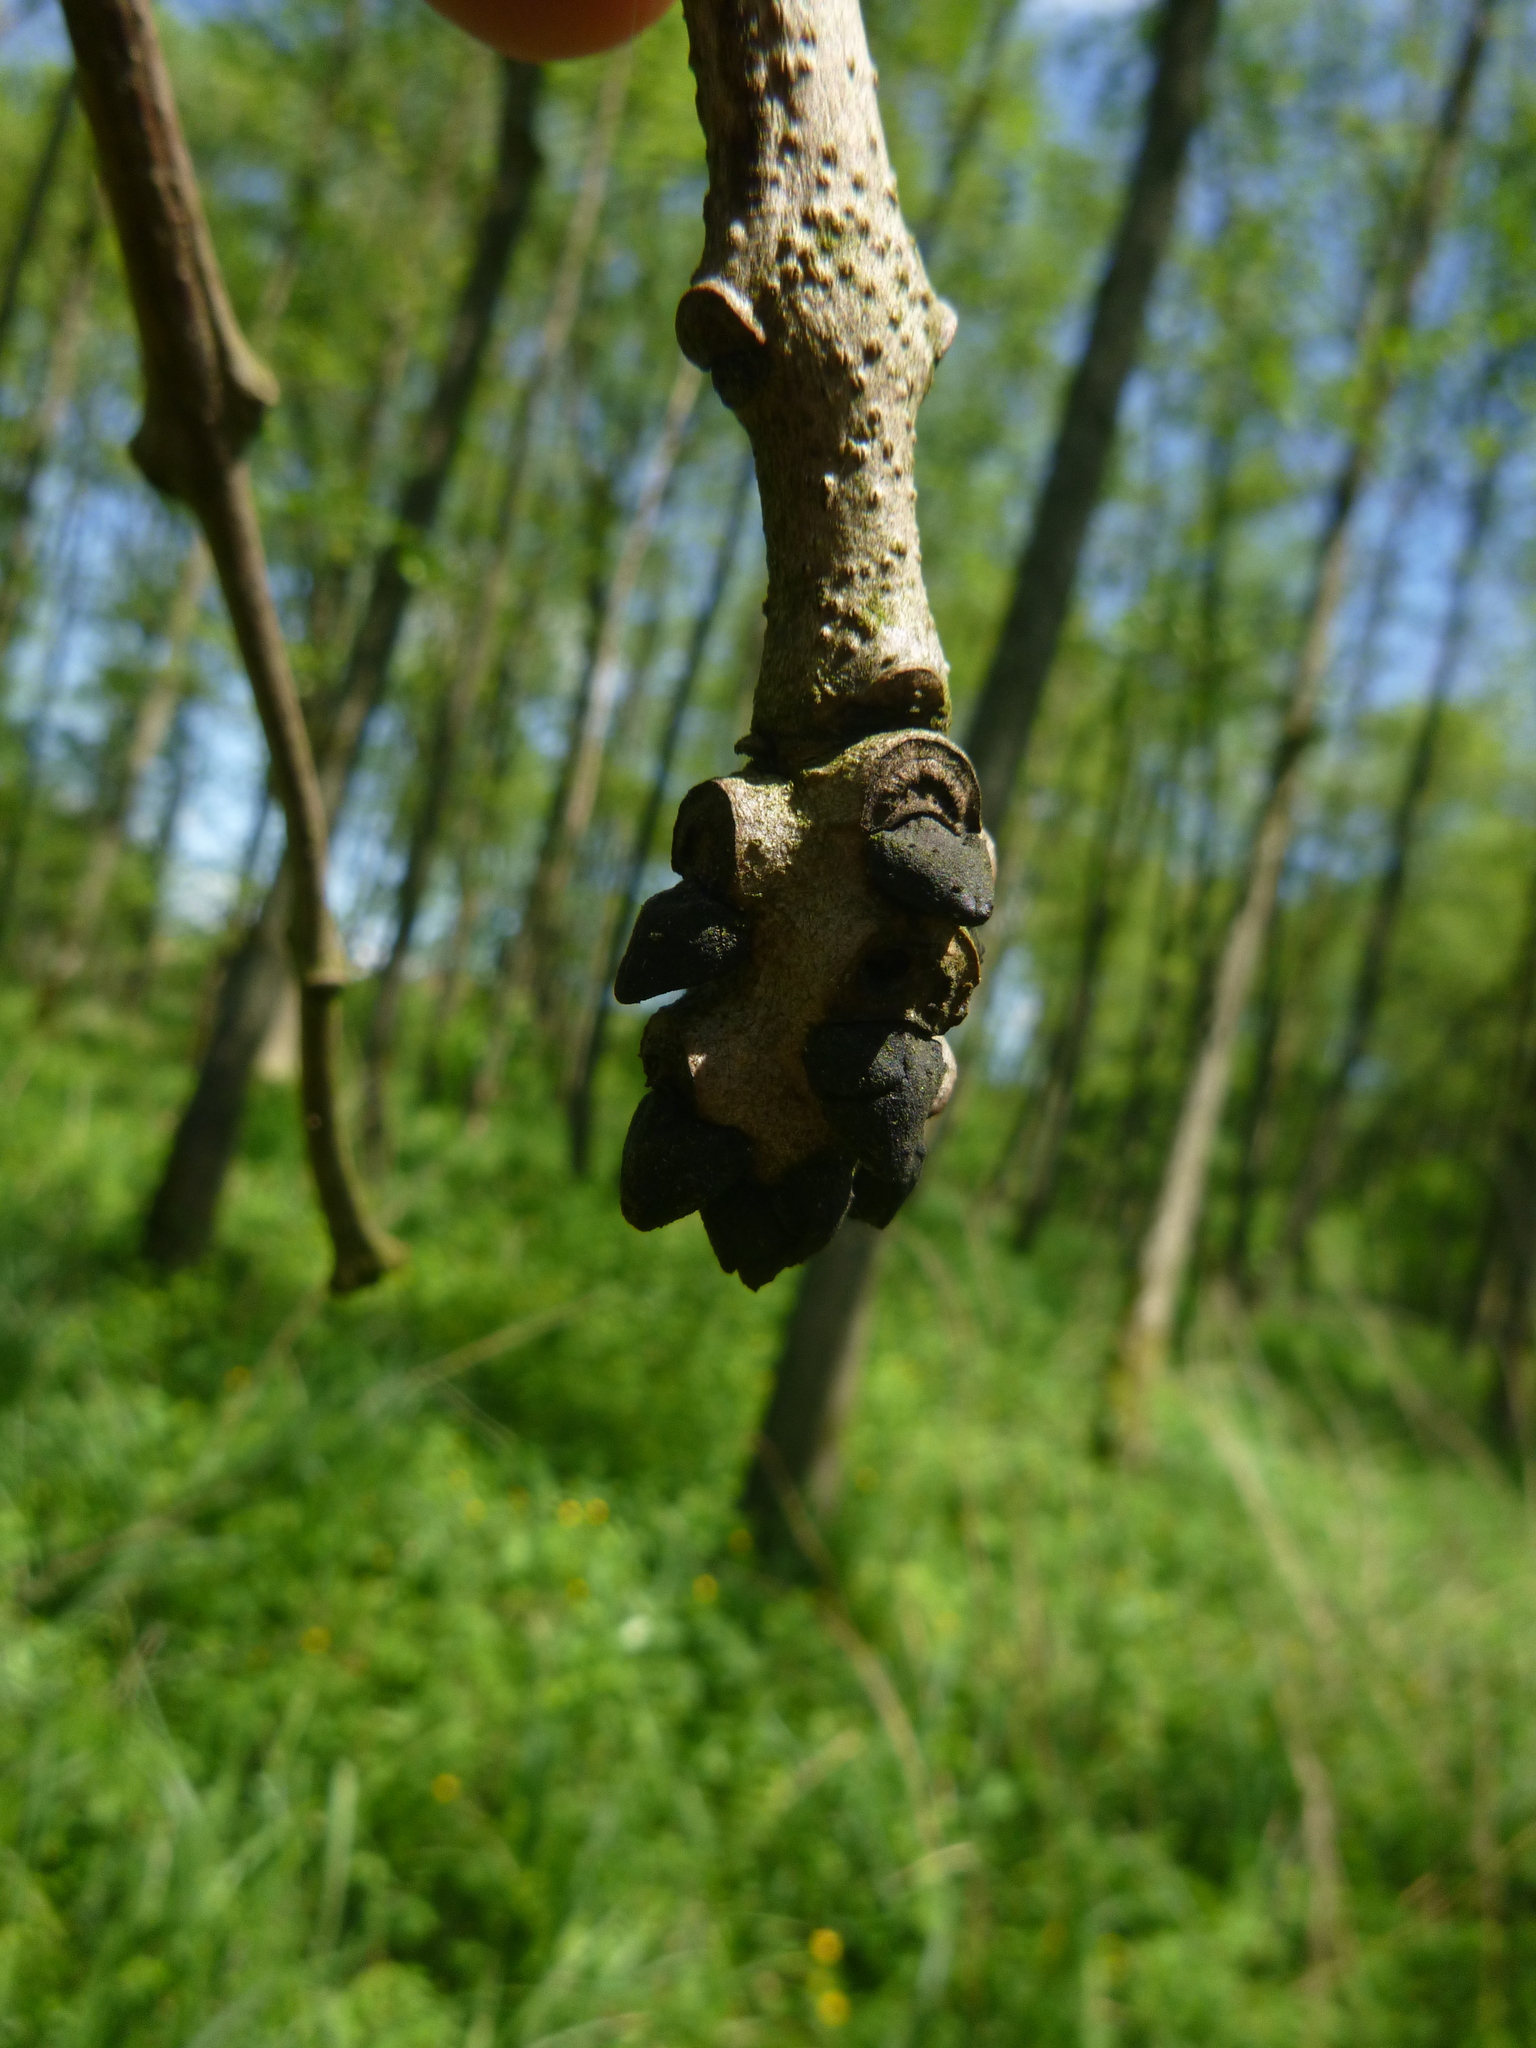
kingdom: Plantae
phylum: Tracheophyta
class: Magnoliopsida
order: Lamiales
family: Oleaceae
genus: Fraxinus
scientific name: Fraxinus excelsior
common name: European ash
